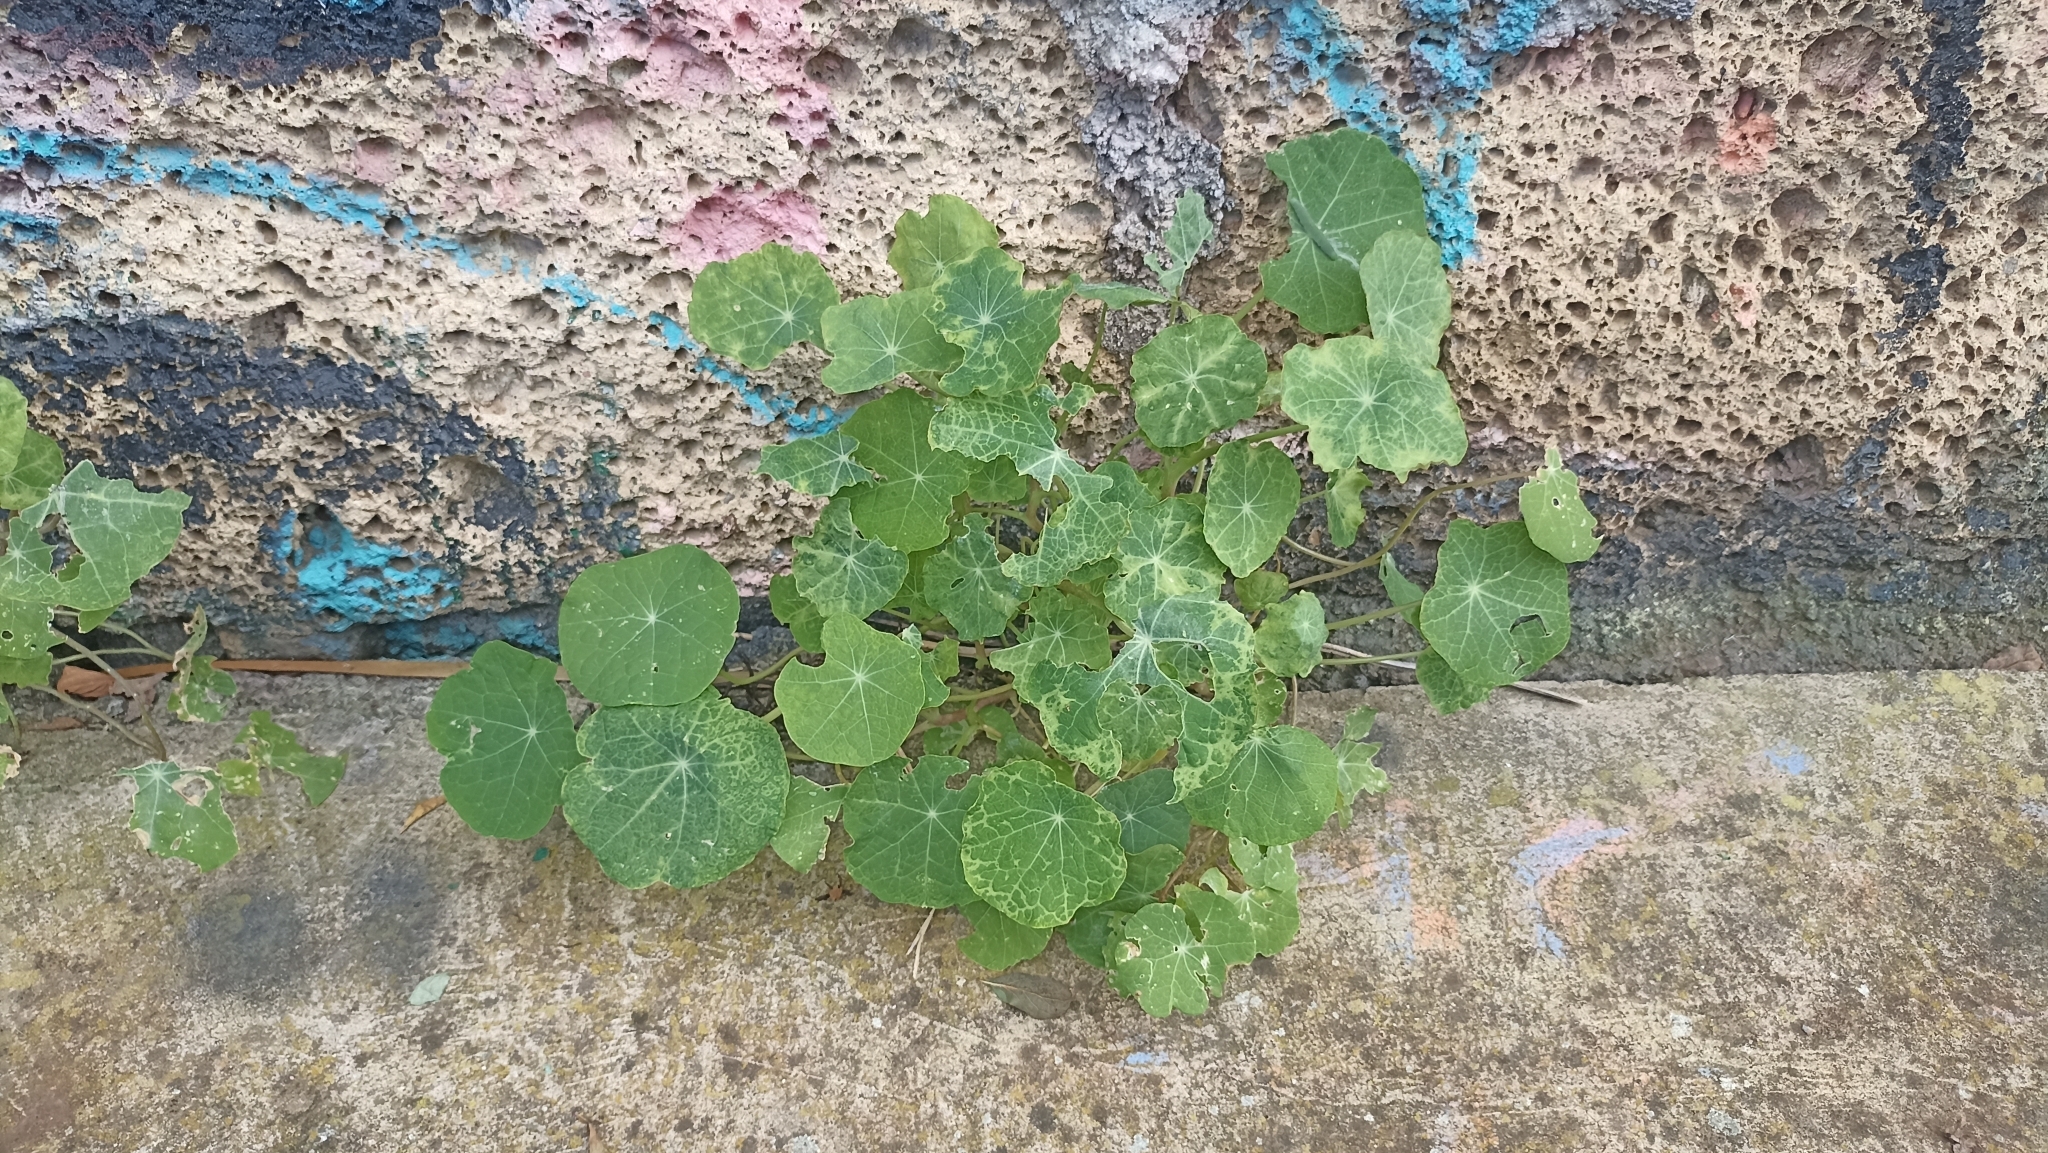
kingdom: Plantae
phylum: Tracheophyta
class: Magnoliopsida
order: Brassicales
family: Tropaeolaceae
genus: Tropaeolum
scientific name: Tropaeolum majus
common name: Nasturtium
